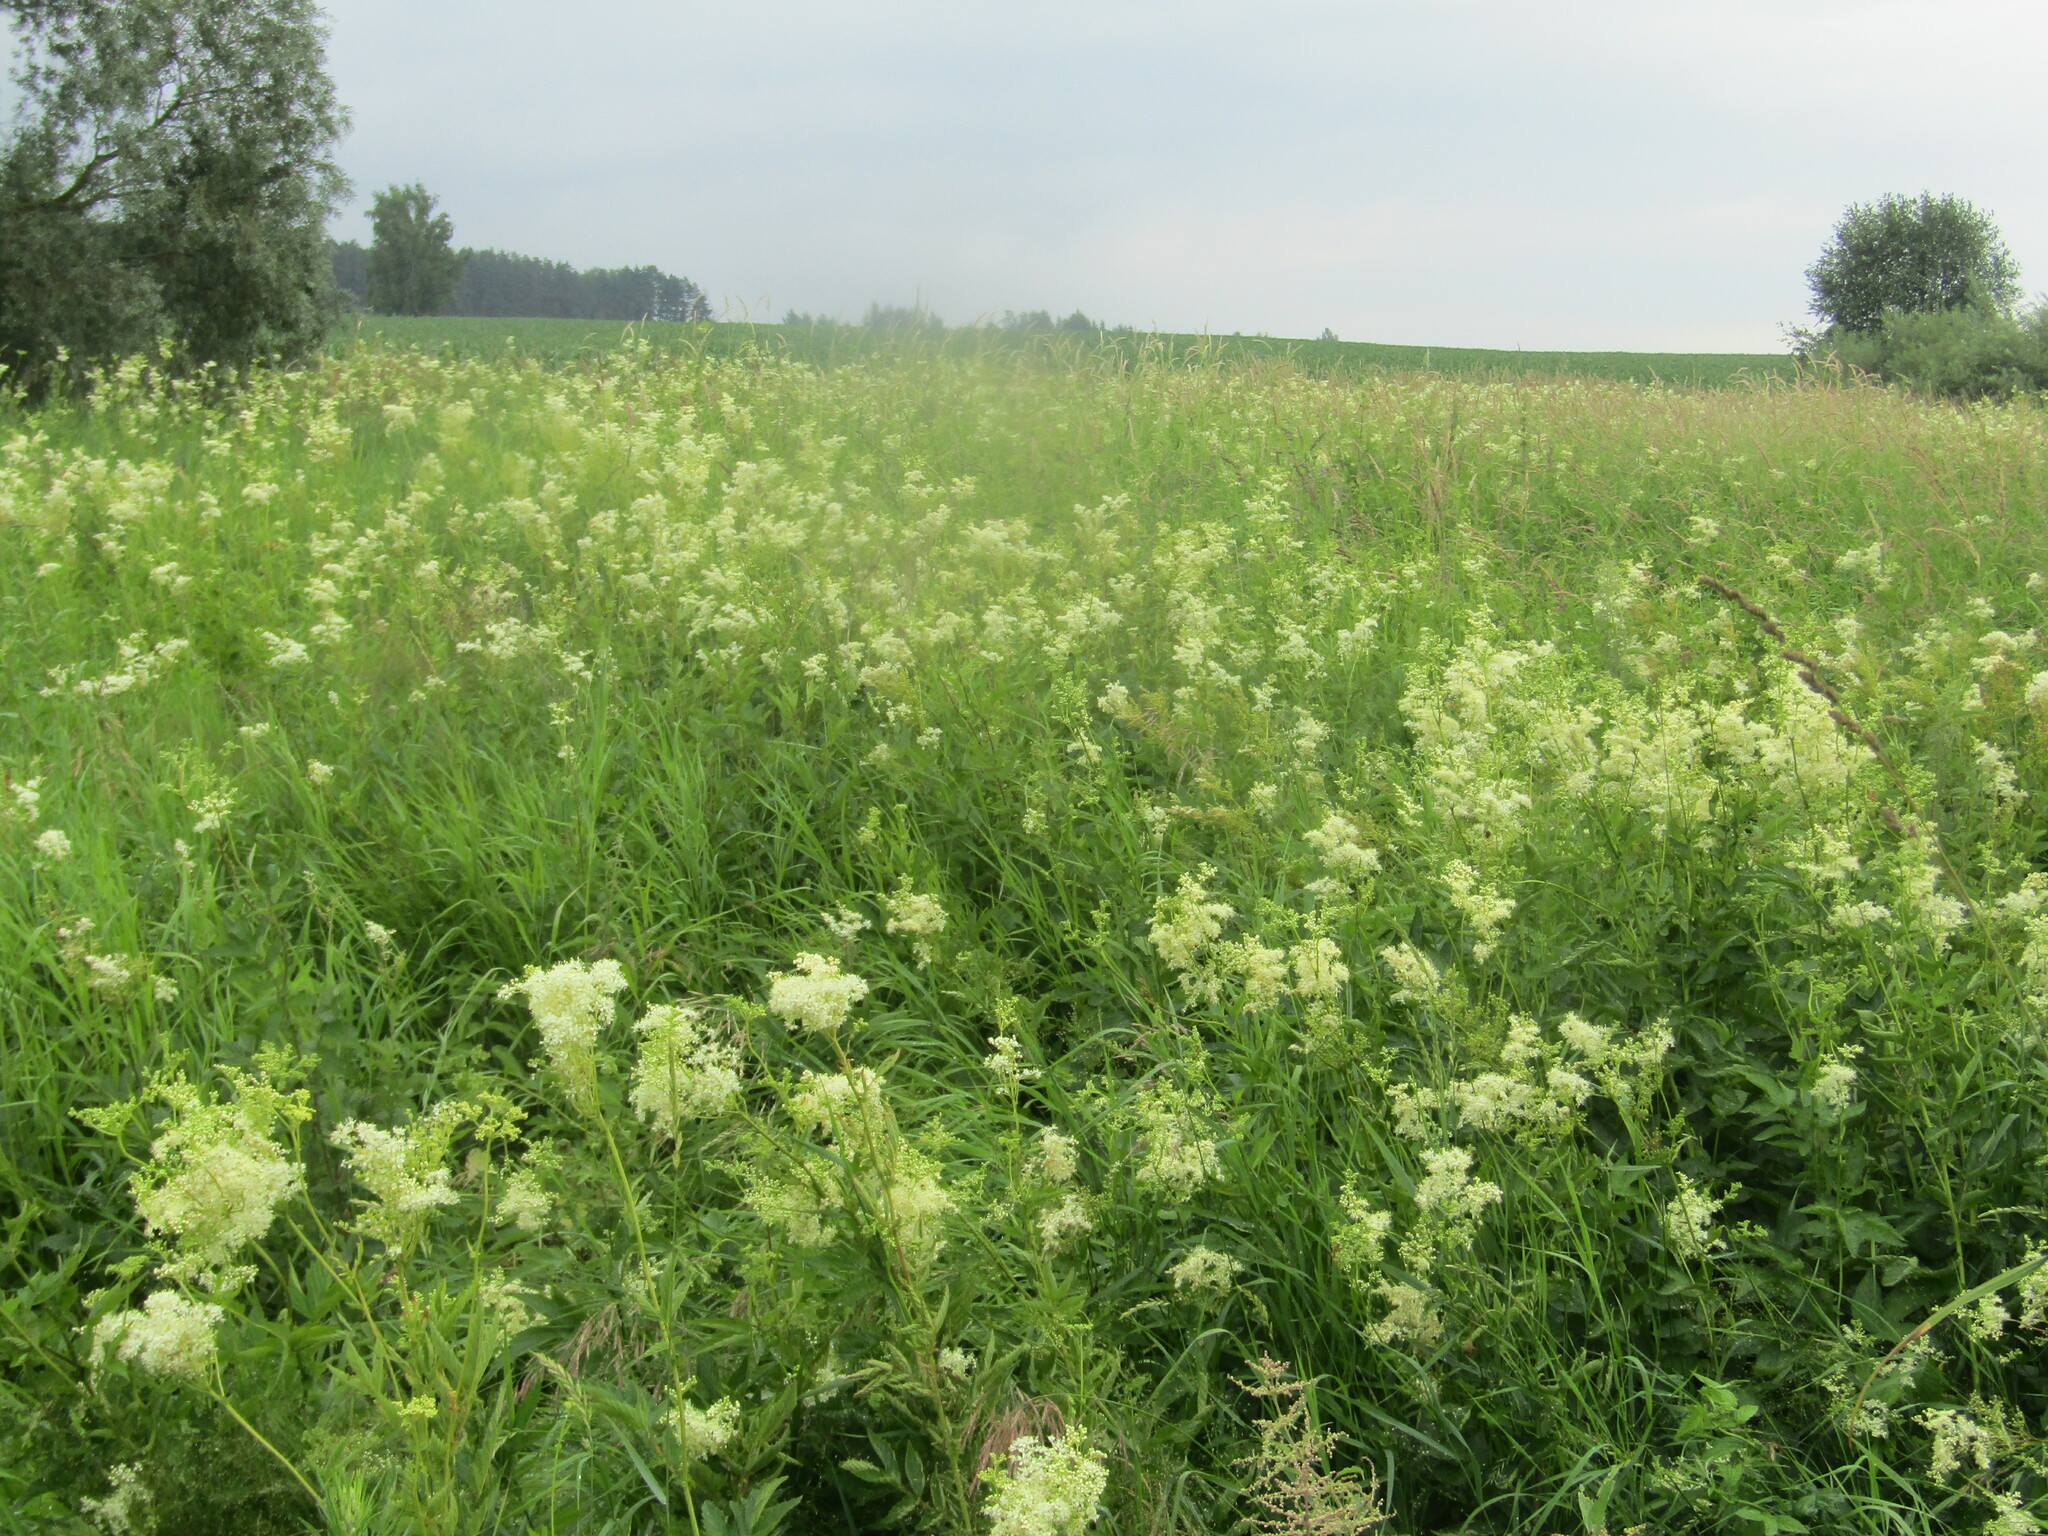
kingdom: Plantae
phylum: Tracheophyta
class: Magnoliopsida
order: Rosales
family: Rosaceae
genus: Filipendula
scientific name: Filipendula ulmaria
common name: Meadowsweet
